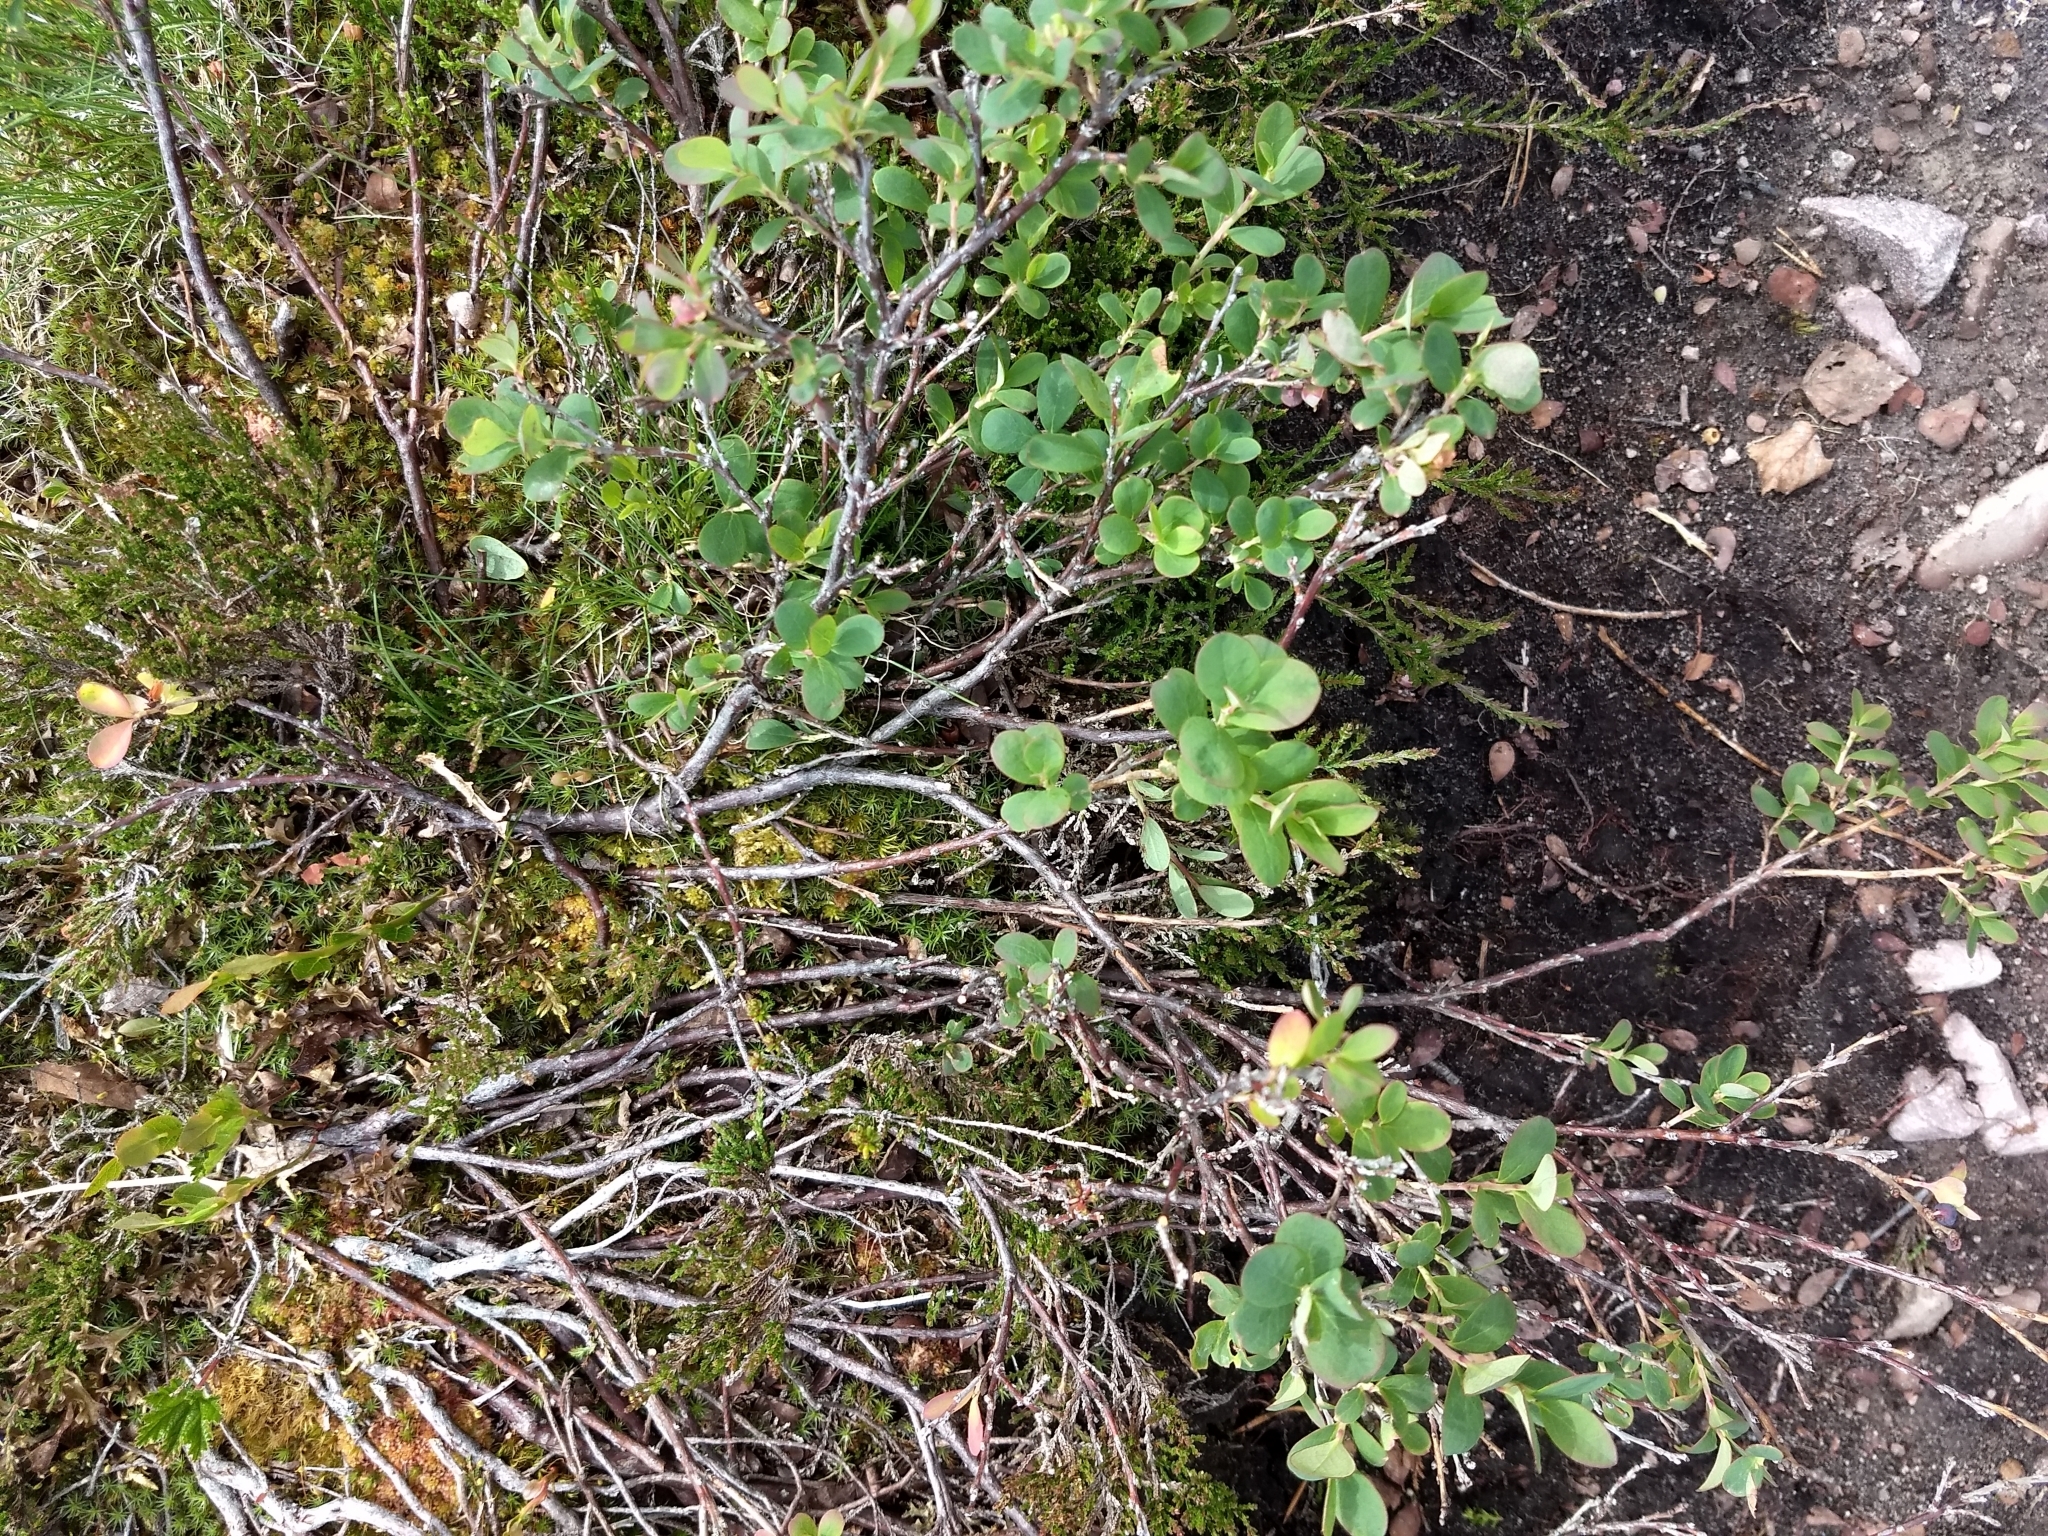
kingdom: Plantae
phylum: Tracheophyta
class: Magnoliopsida
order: Ericales
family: Ericaceae
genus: Vaccinium
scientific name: Vaccinium uliginosum
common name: Bog bilberry
